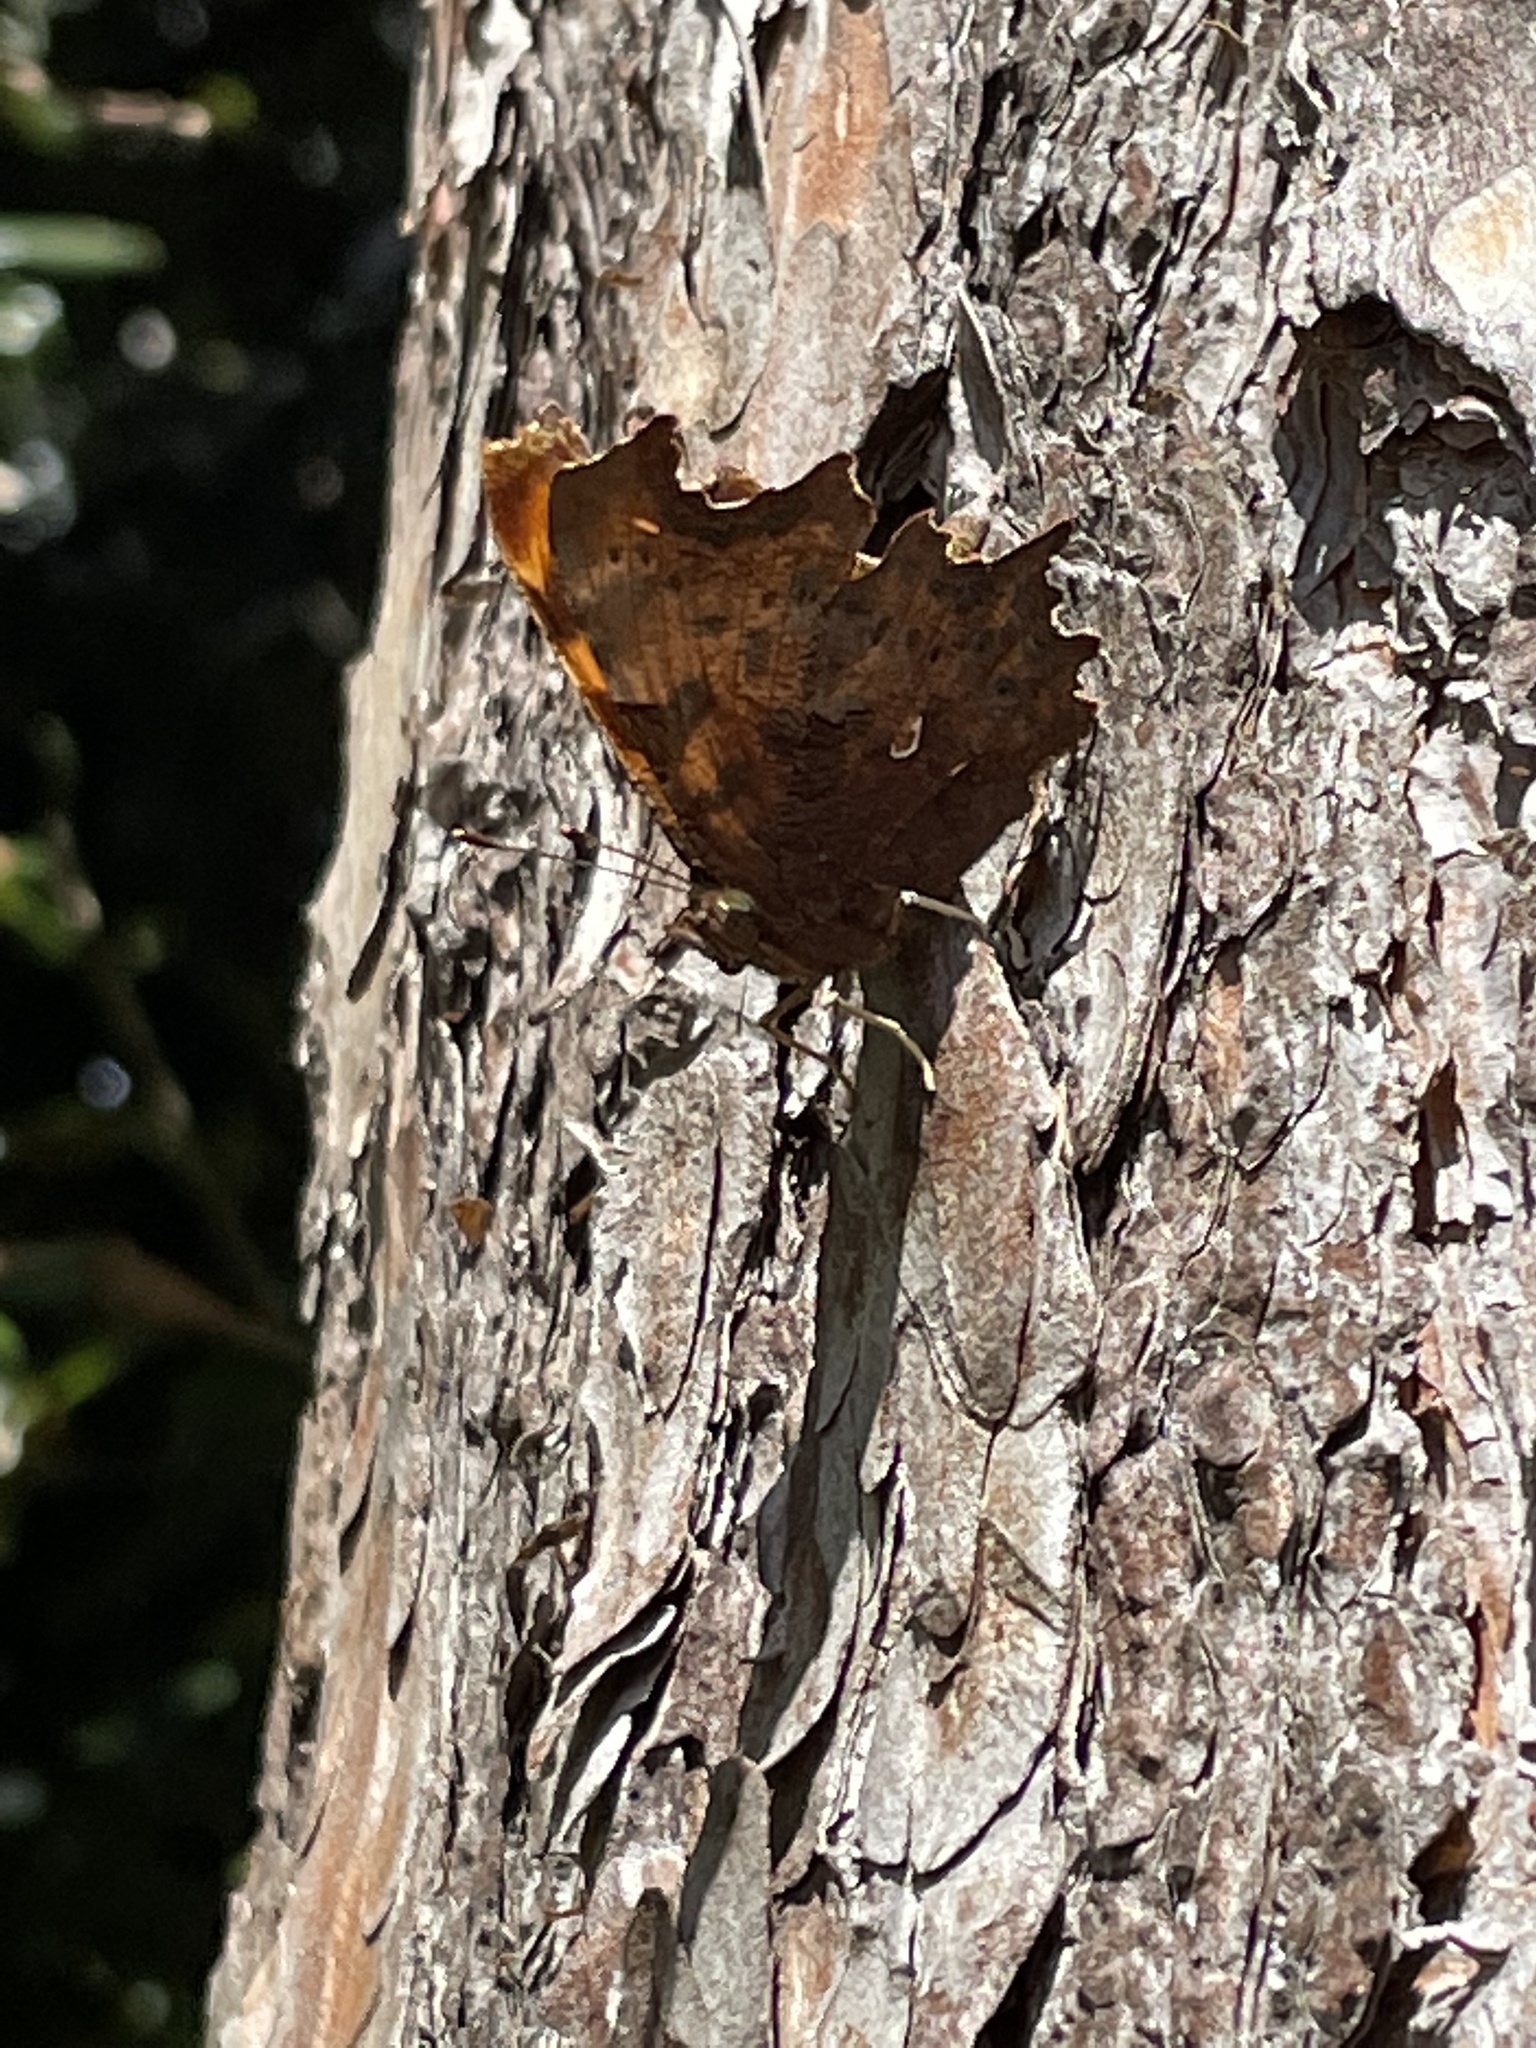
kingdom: Animalia
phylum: Arthropoda
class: Insecta
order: Lepidoptera
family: Nymphalidae
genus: Polygonia
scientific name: Polygonia c-album
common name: Comma
